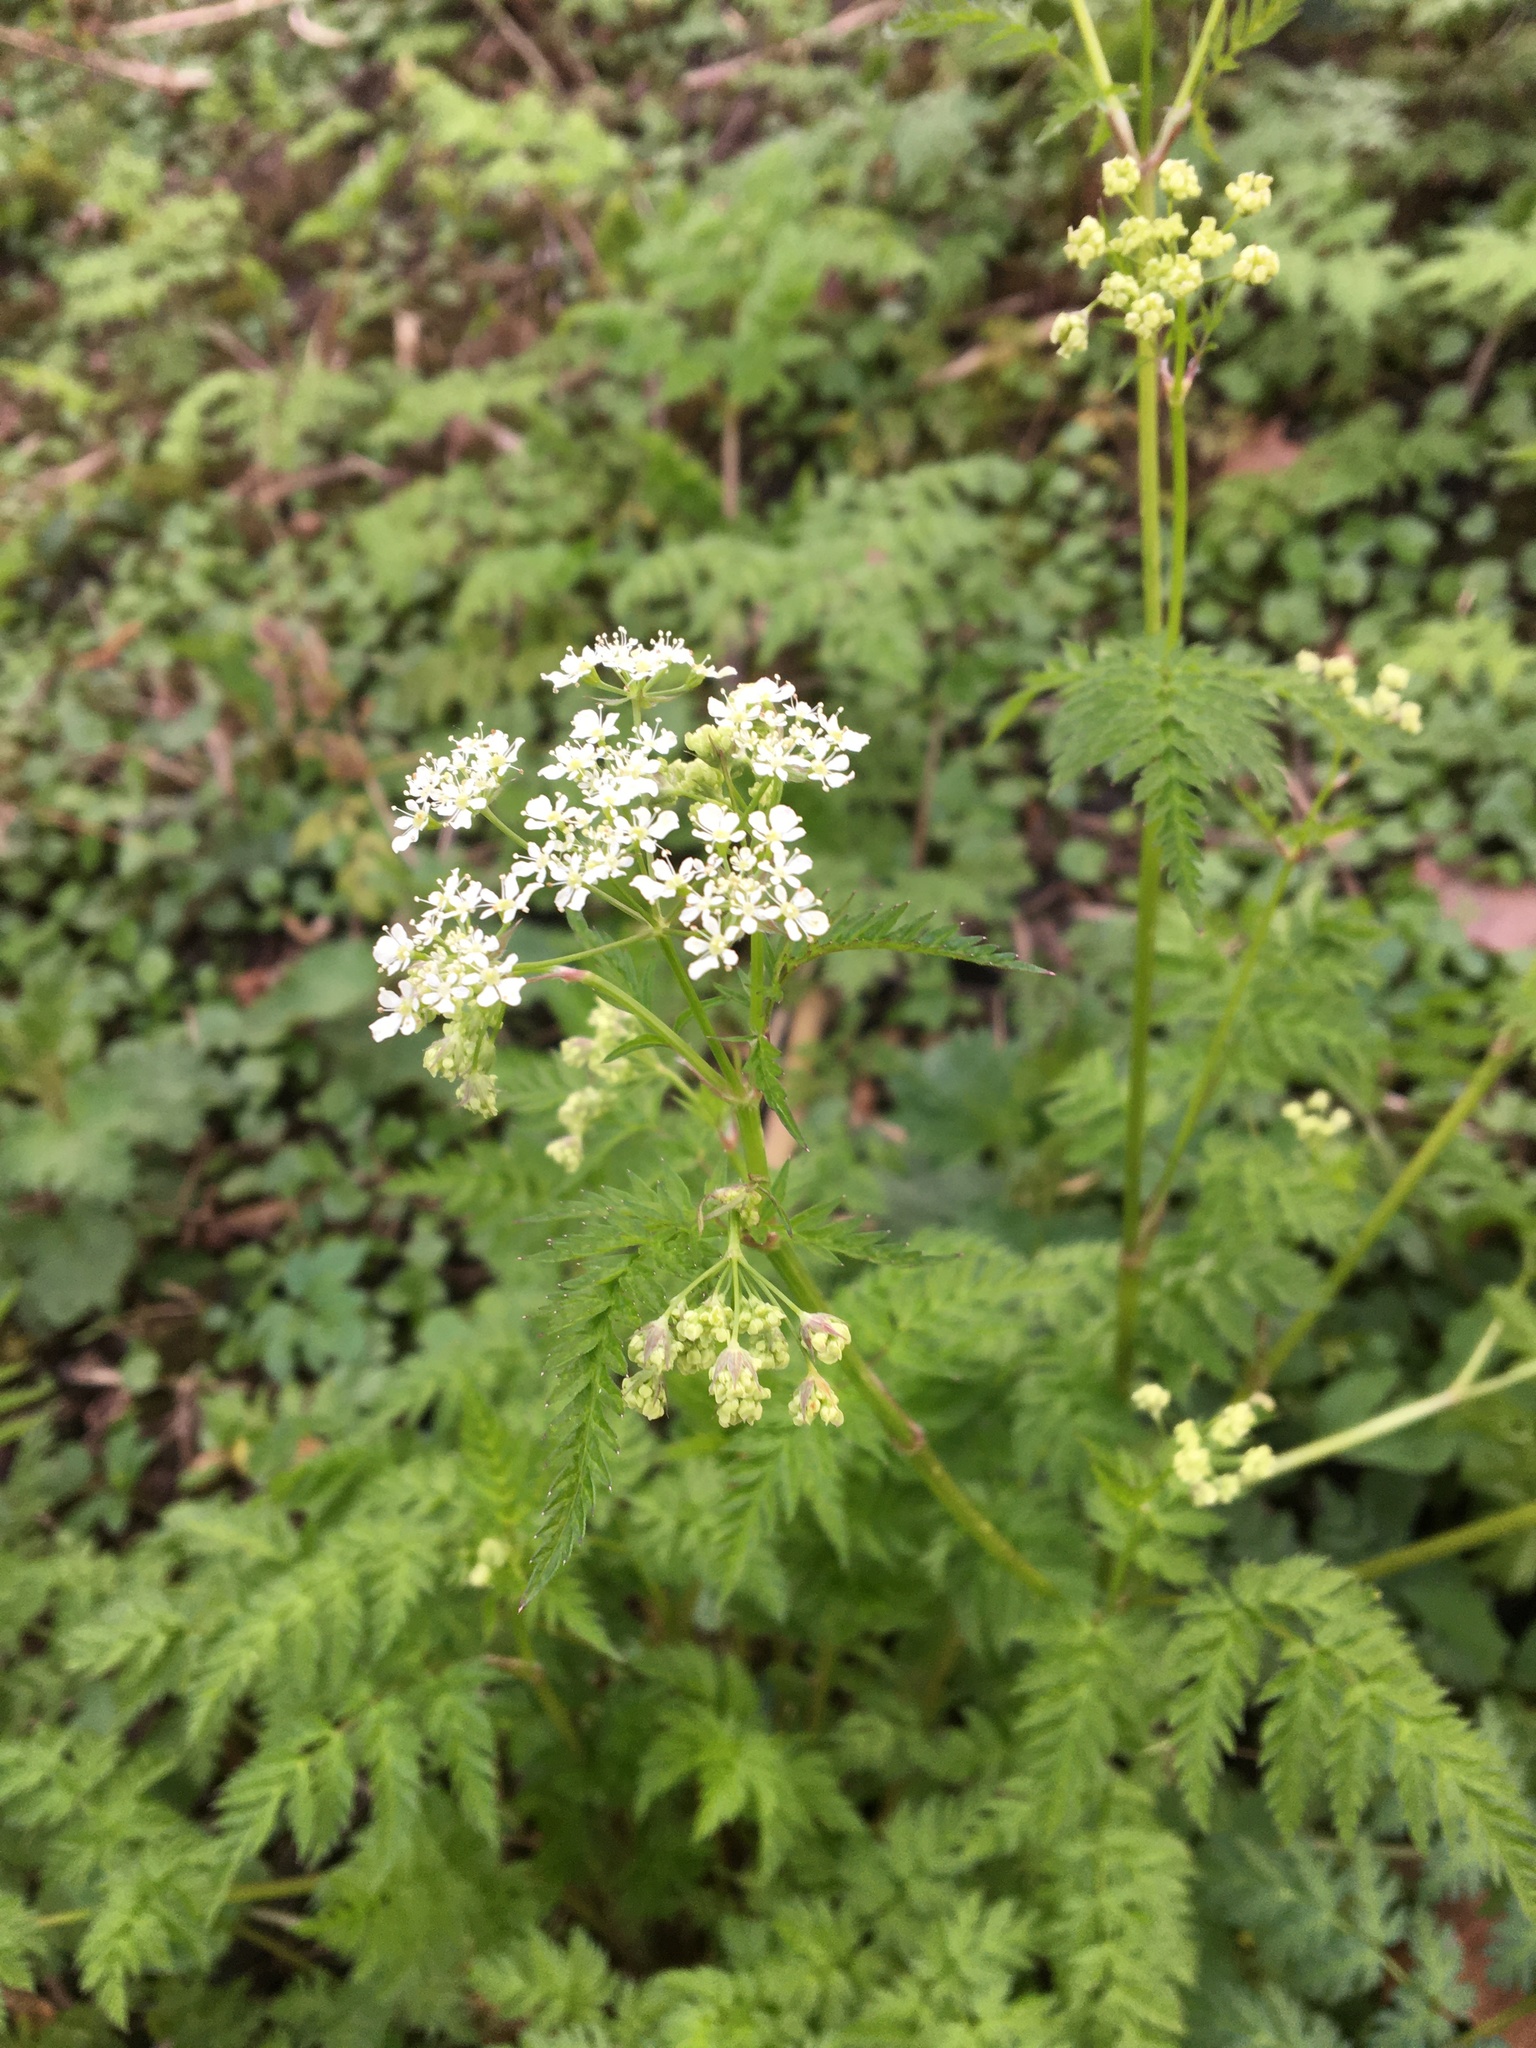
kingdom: Plantae
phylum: Tracheophyta
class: Magnoliopsida
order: Apiales
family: Apiaceae
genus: Anthriscus
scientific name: Anthriscus sylvestris
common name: Cow parsley
